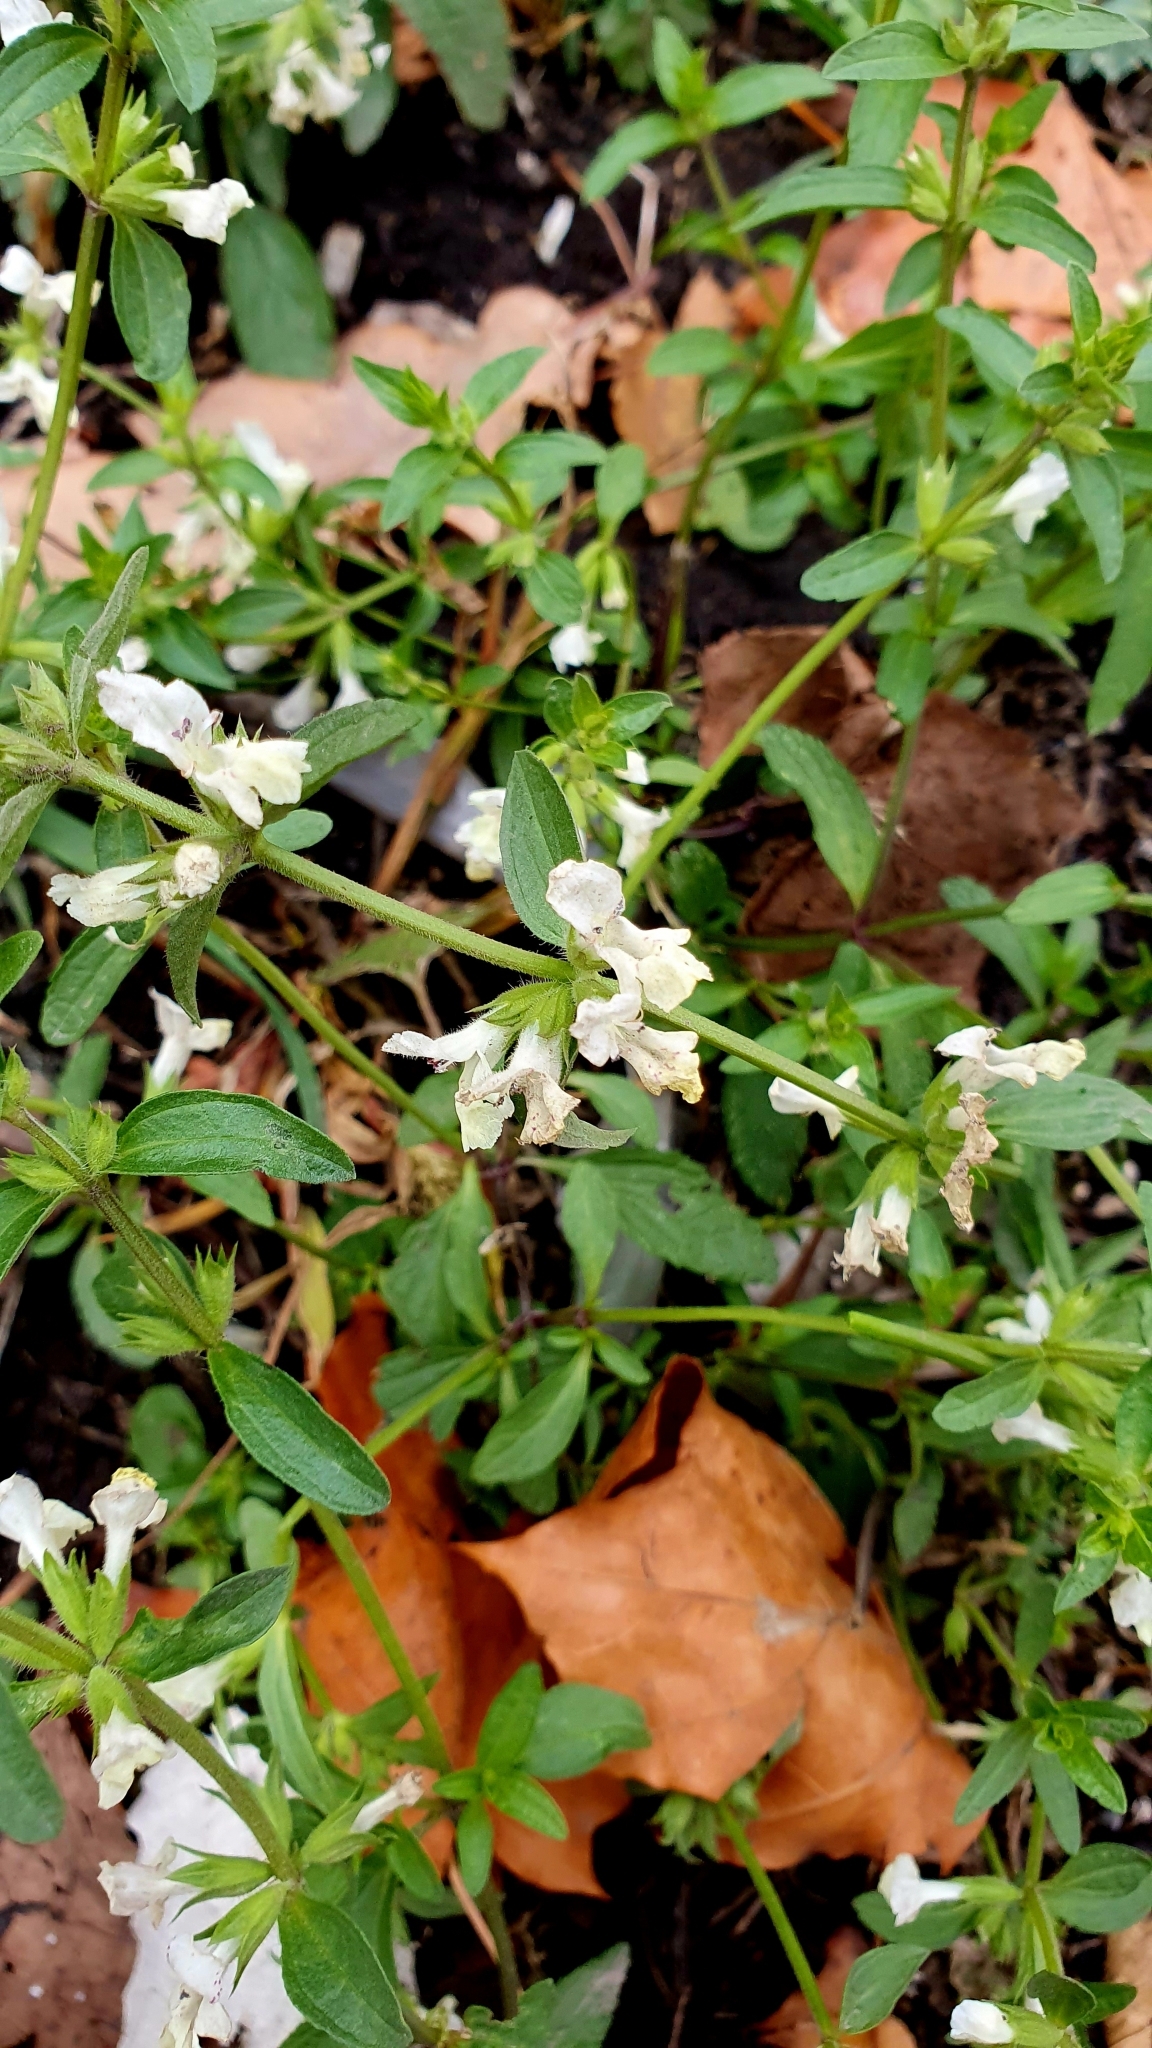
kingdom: Plantae
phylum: Tracheophyta
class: Magnoliopsida
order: Lamiales
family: Lamiaceae
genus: Stachys
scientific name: Stachys annua
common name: Annual yellow-woundwort
